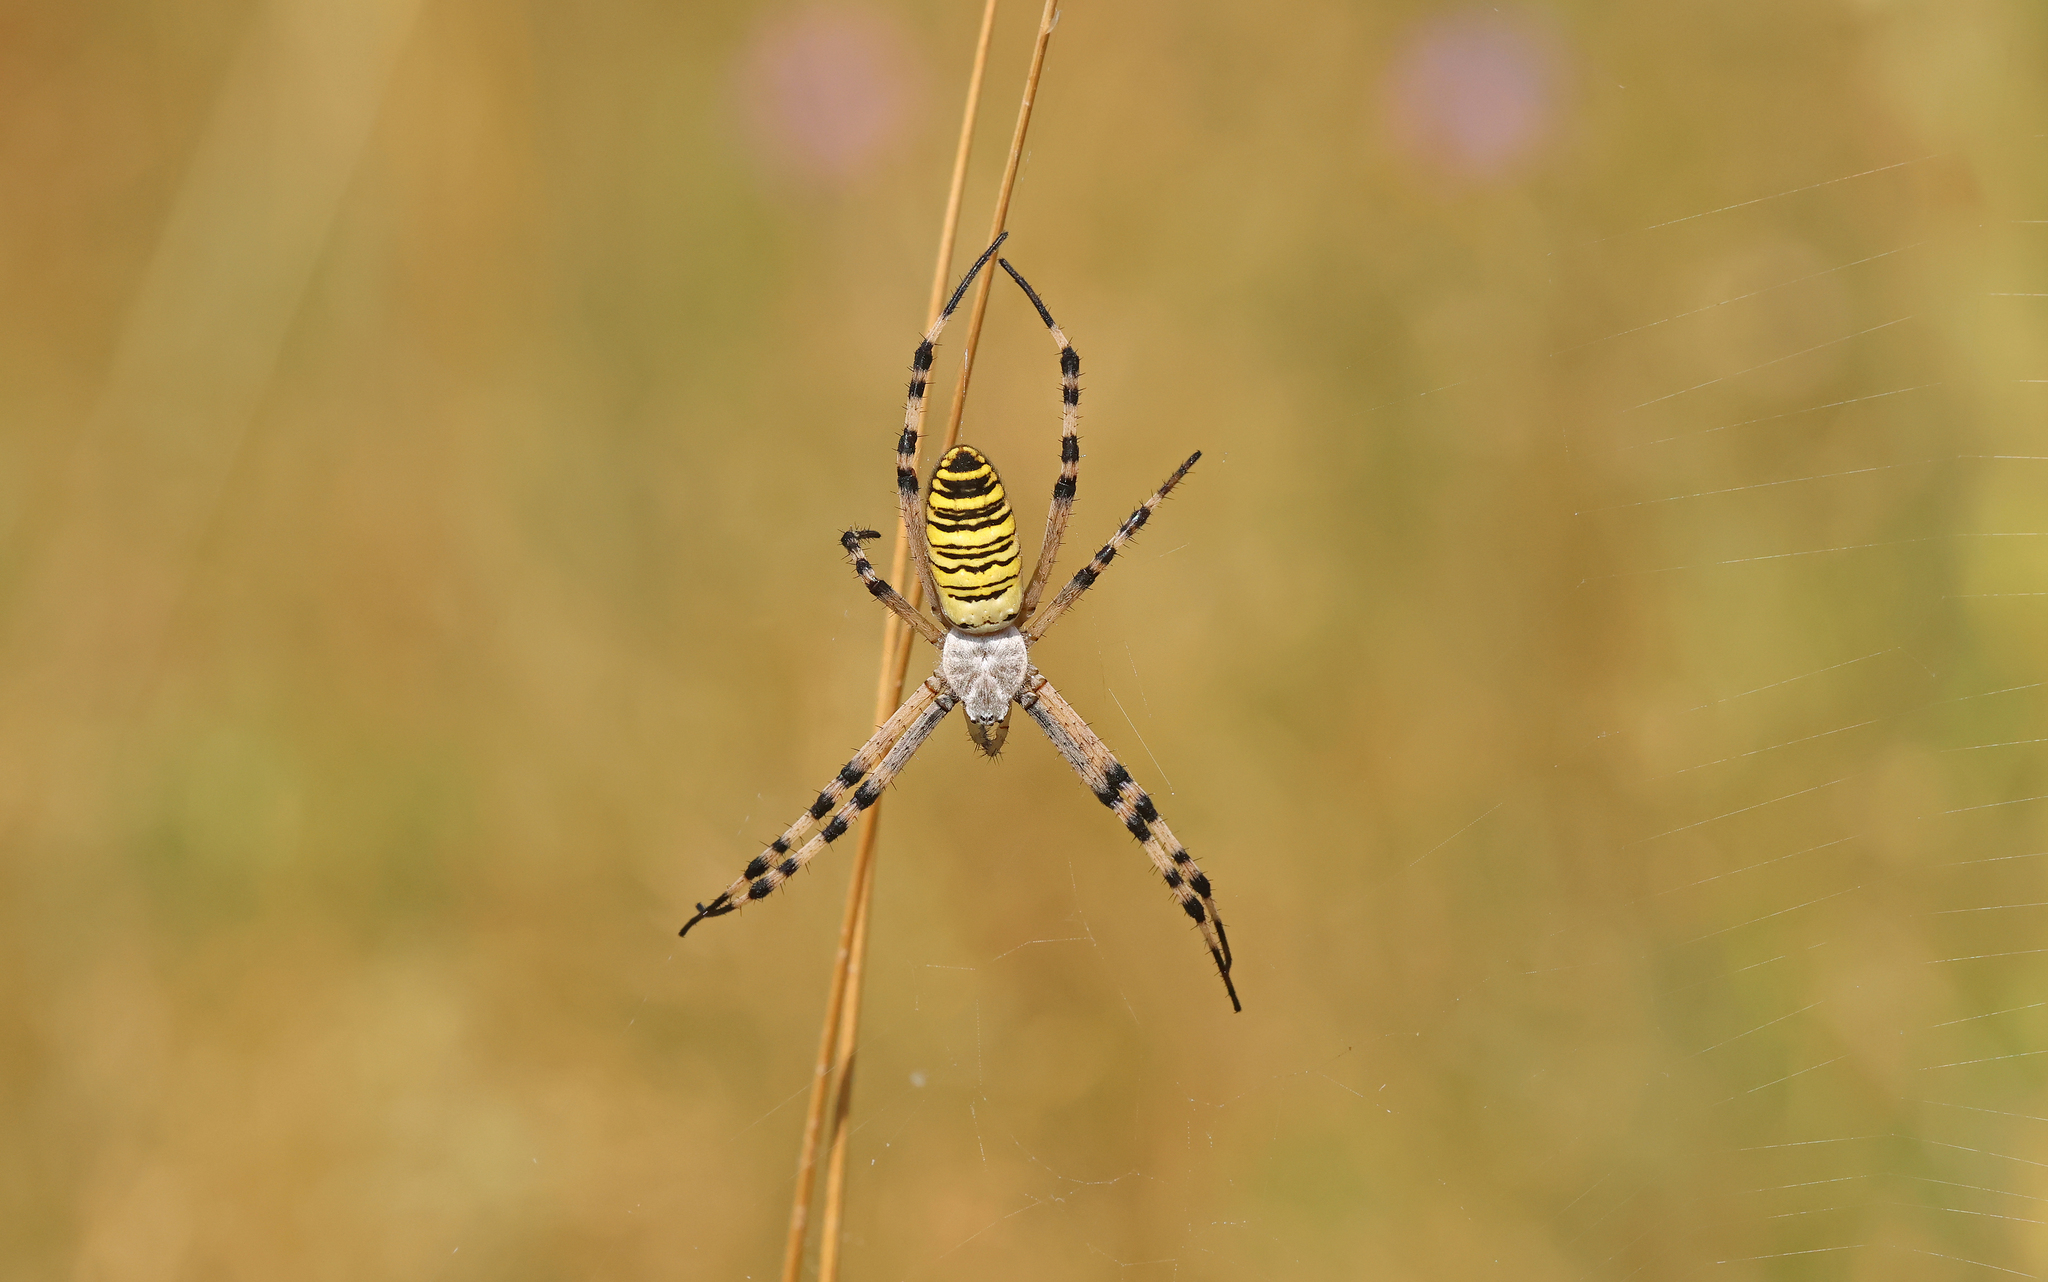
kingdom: Animalia
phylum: Arthropoda
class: Arachnida
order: Araneae
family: Araneidae
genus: Argiope
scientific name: Argiope bruennichi
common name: Wasp spider
